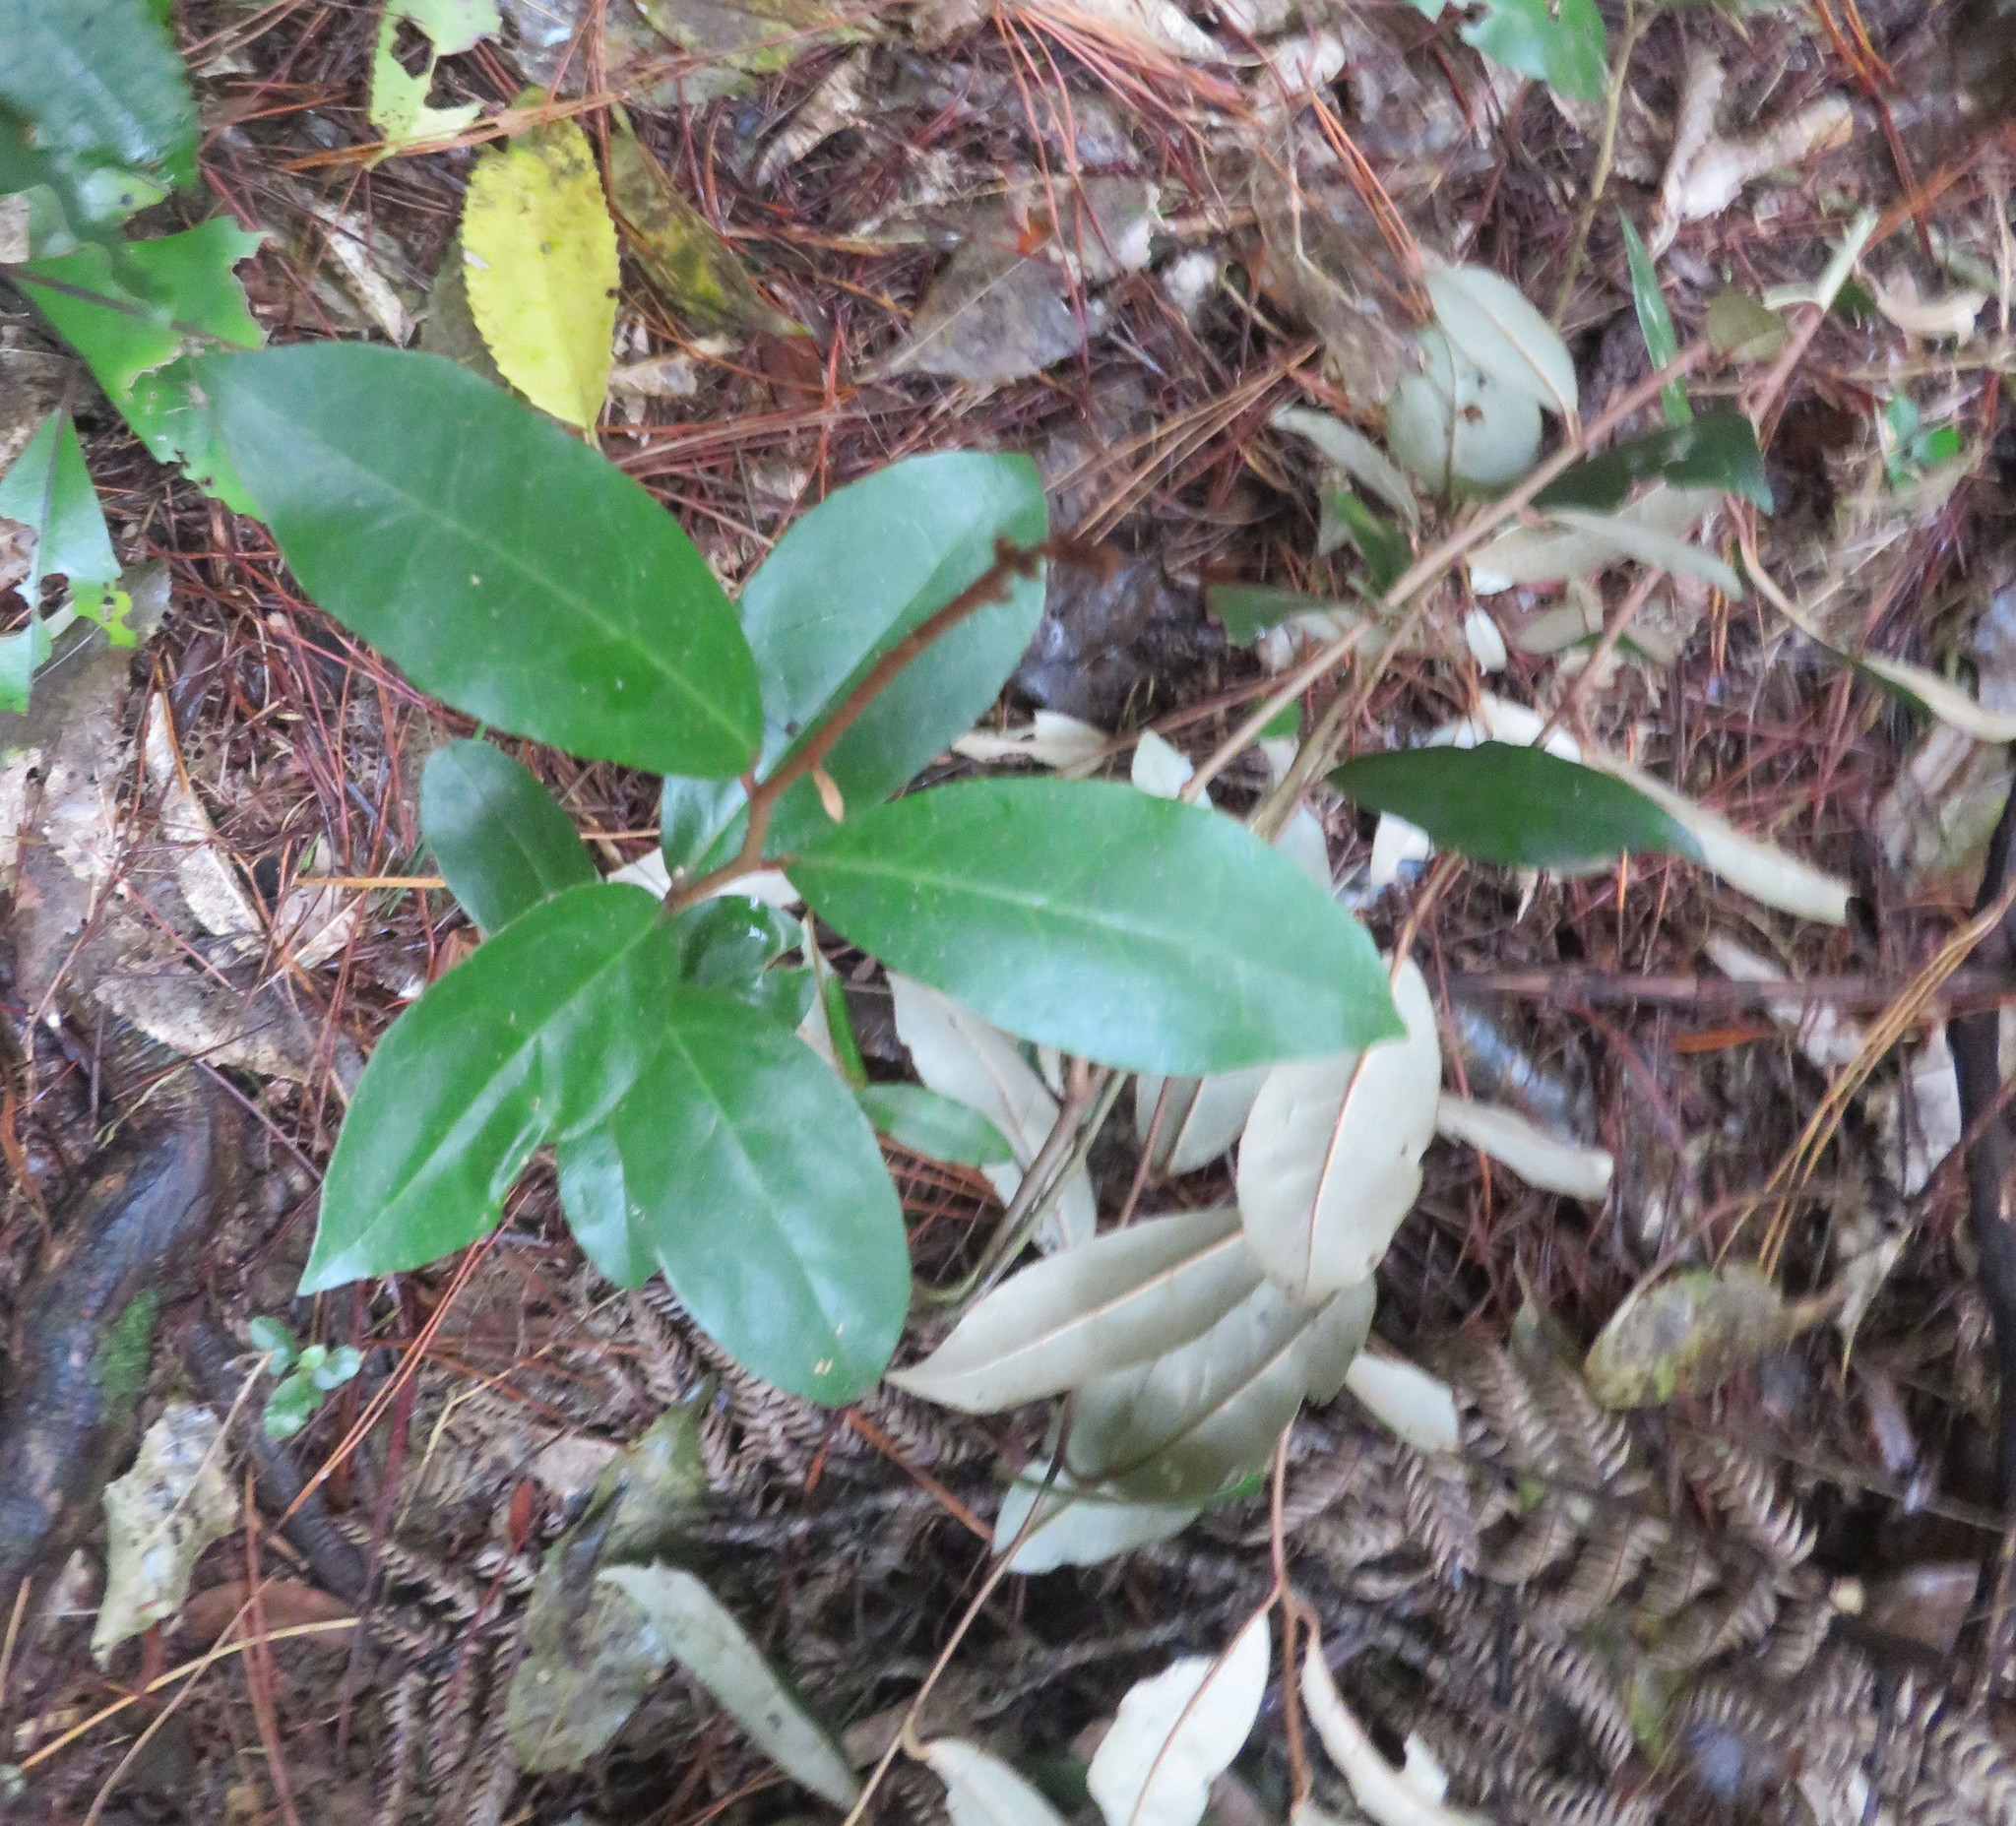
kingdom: Plantae
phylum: Tracheophyta
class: Magnoliopsida
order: Rosales
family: Elaeagnaceae
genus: Elaeagnus
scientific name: Elaeagnus reflexa
